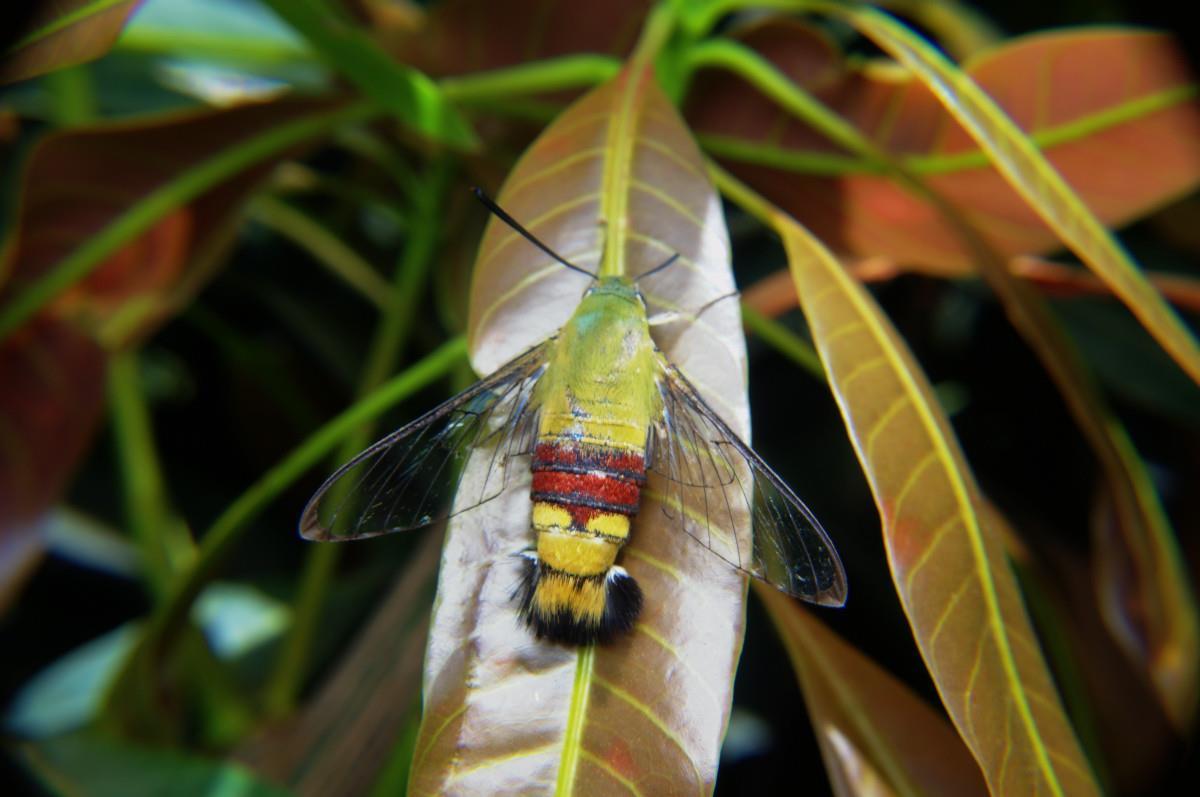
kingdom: Animalia
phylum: Arthropoda
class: Insecta
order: Lepidoptera
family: Sphingidae
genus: Cephonodes
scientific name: Cephonodes hylas
